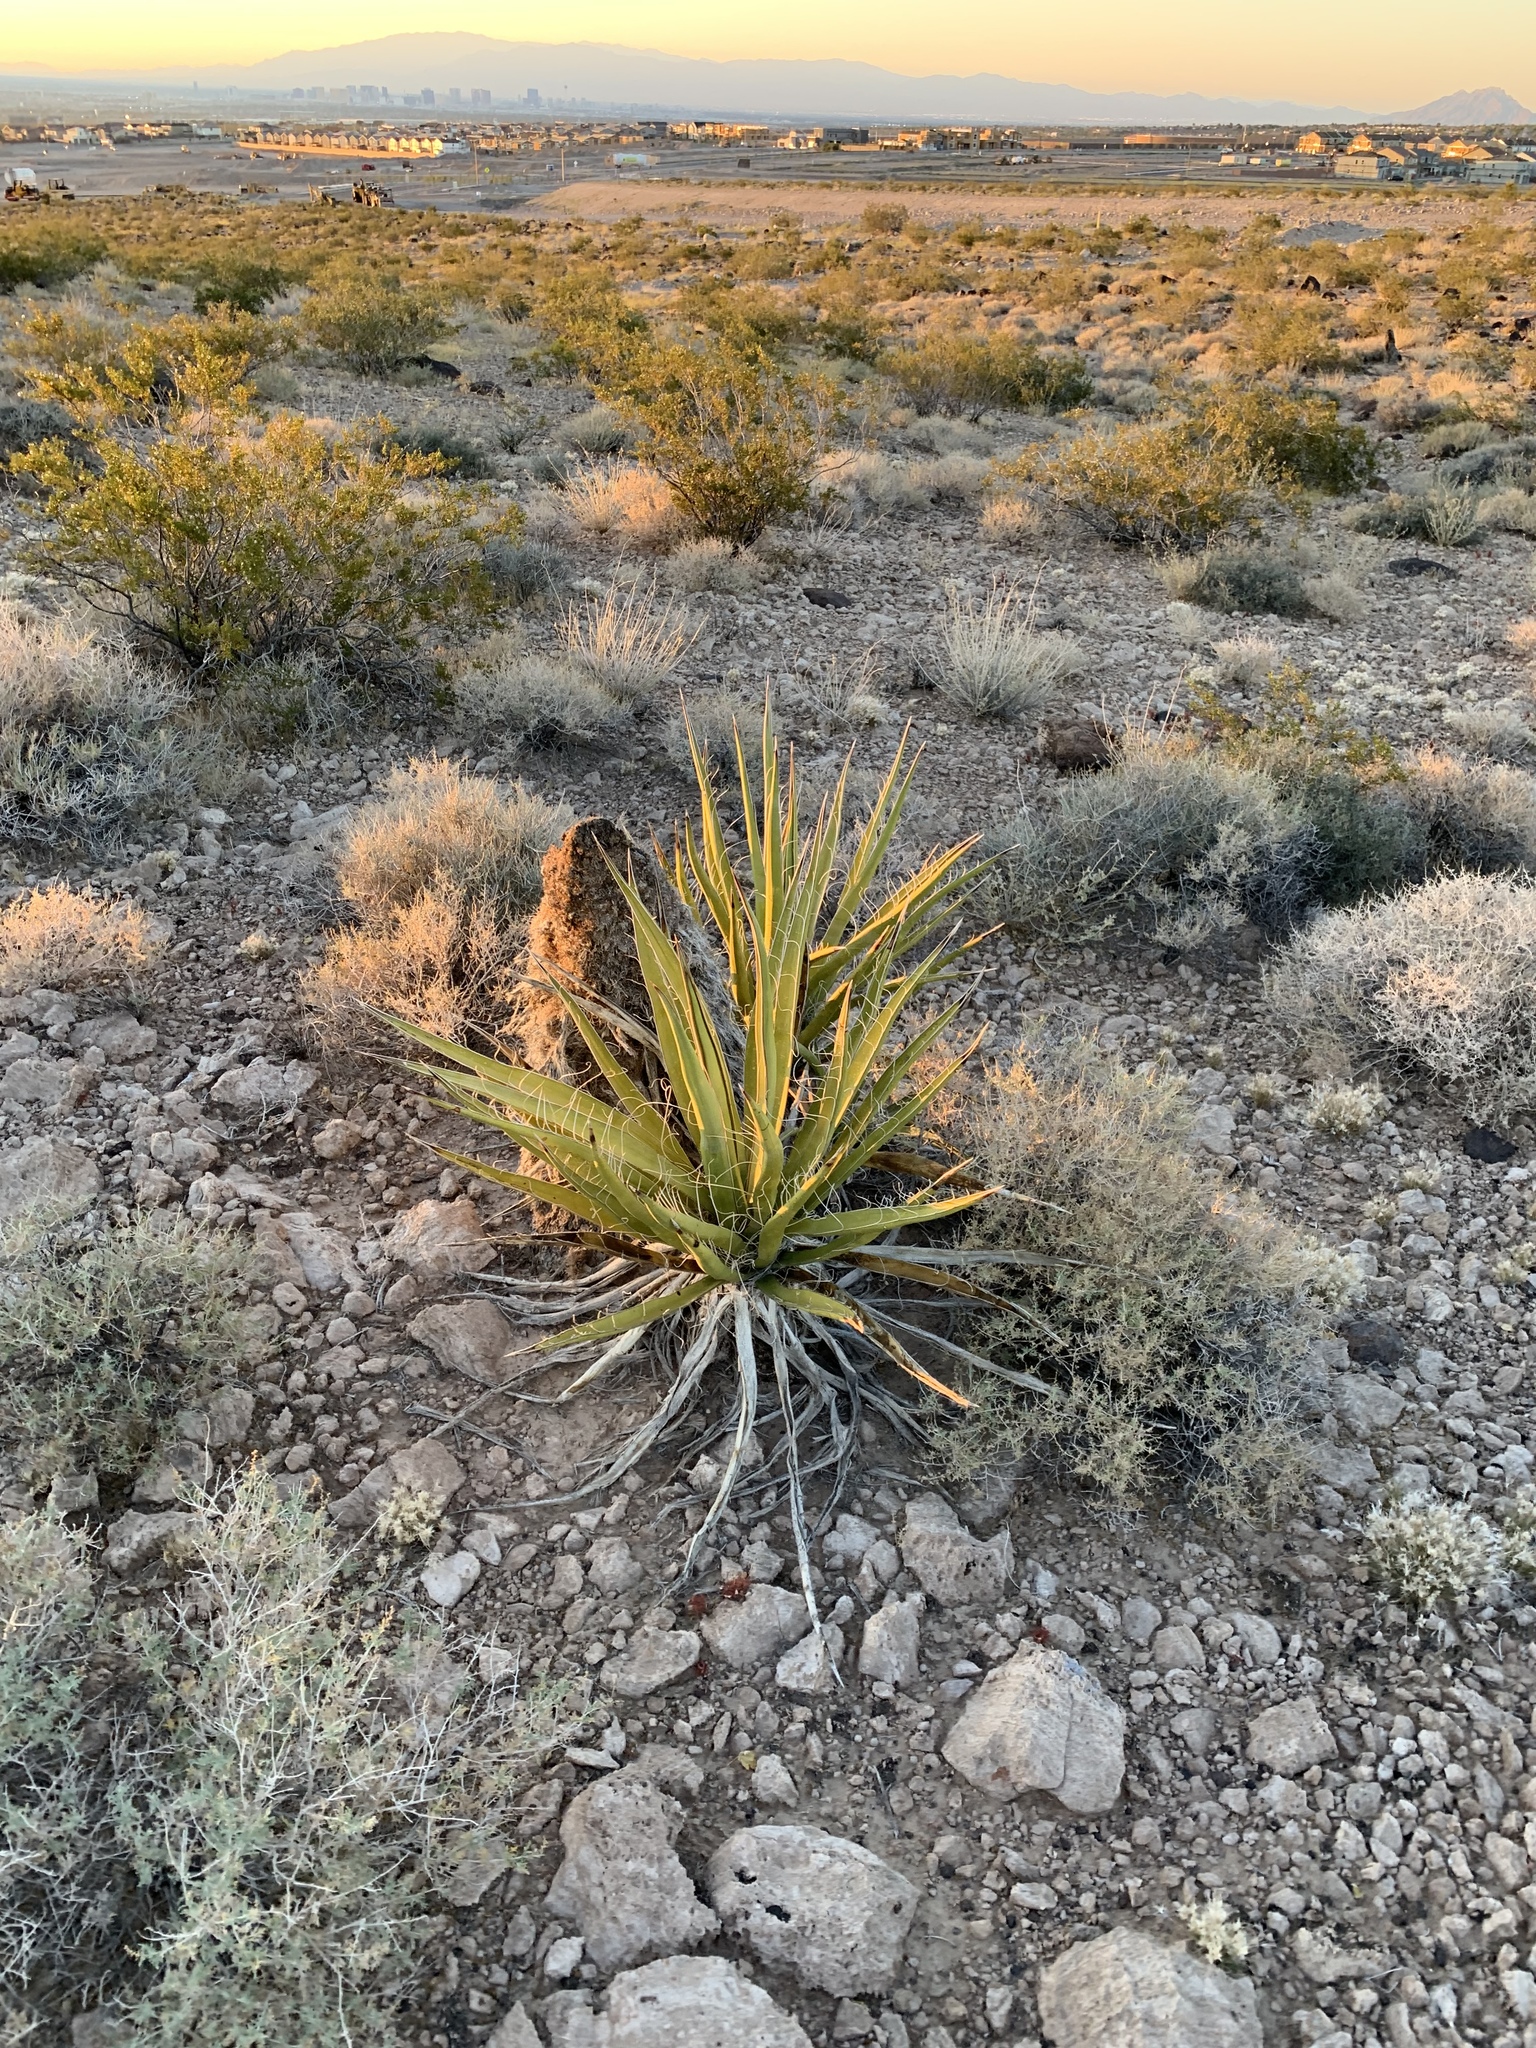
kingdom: Plantae
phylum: Tracheophyta
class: Liliopsida
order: Asparagales
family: Asparagaceae
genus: Yucca
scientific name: Yucca baccata
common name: Banana yucca
